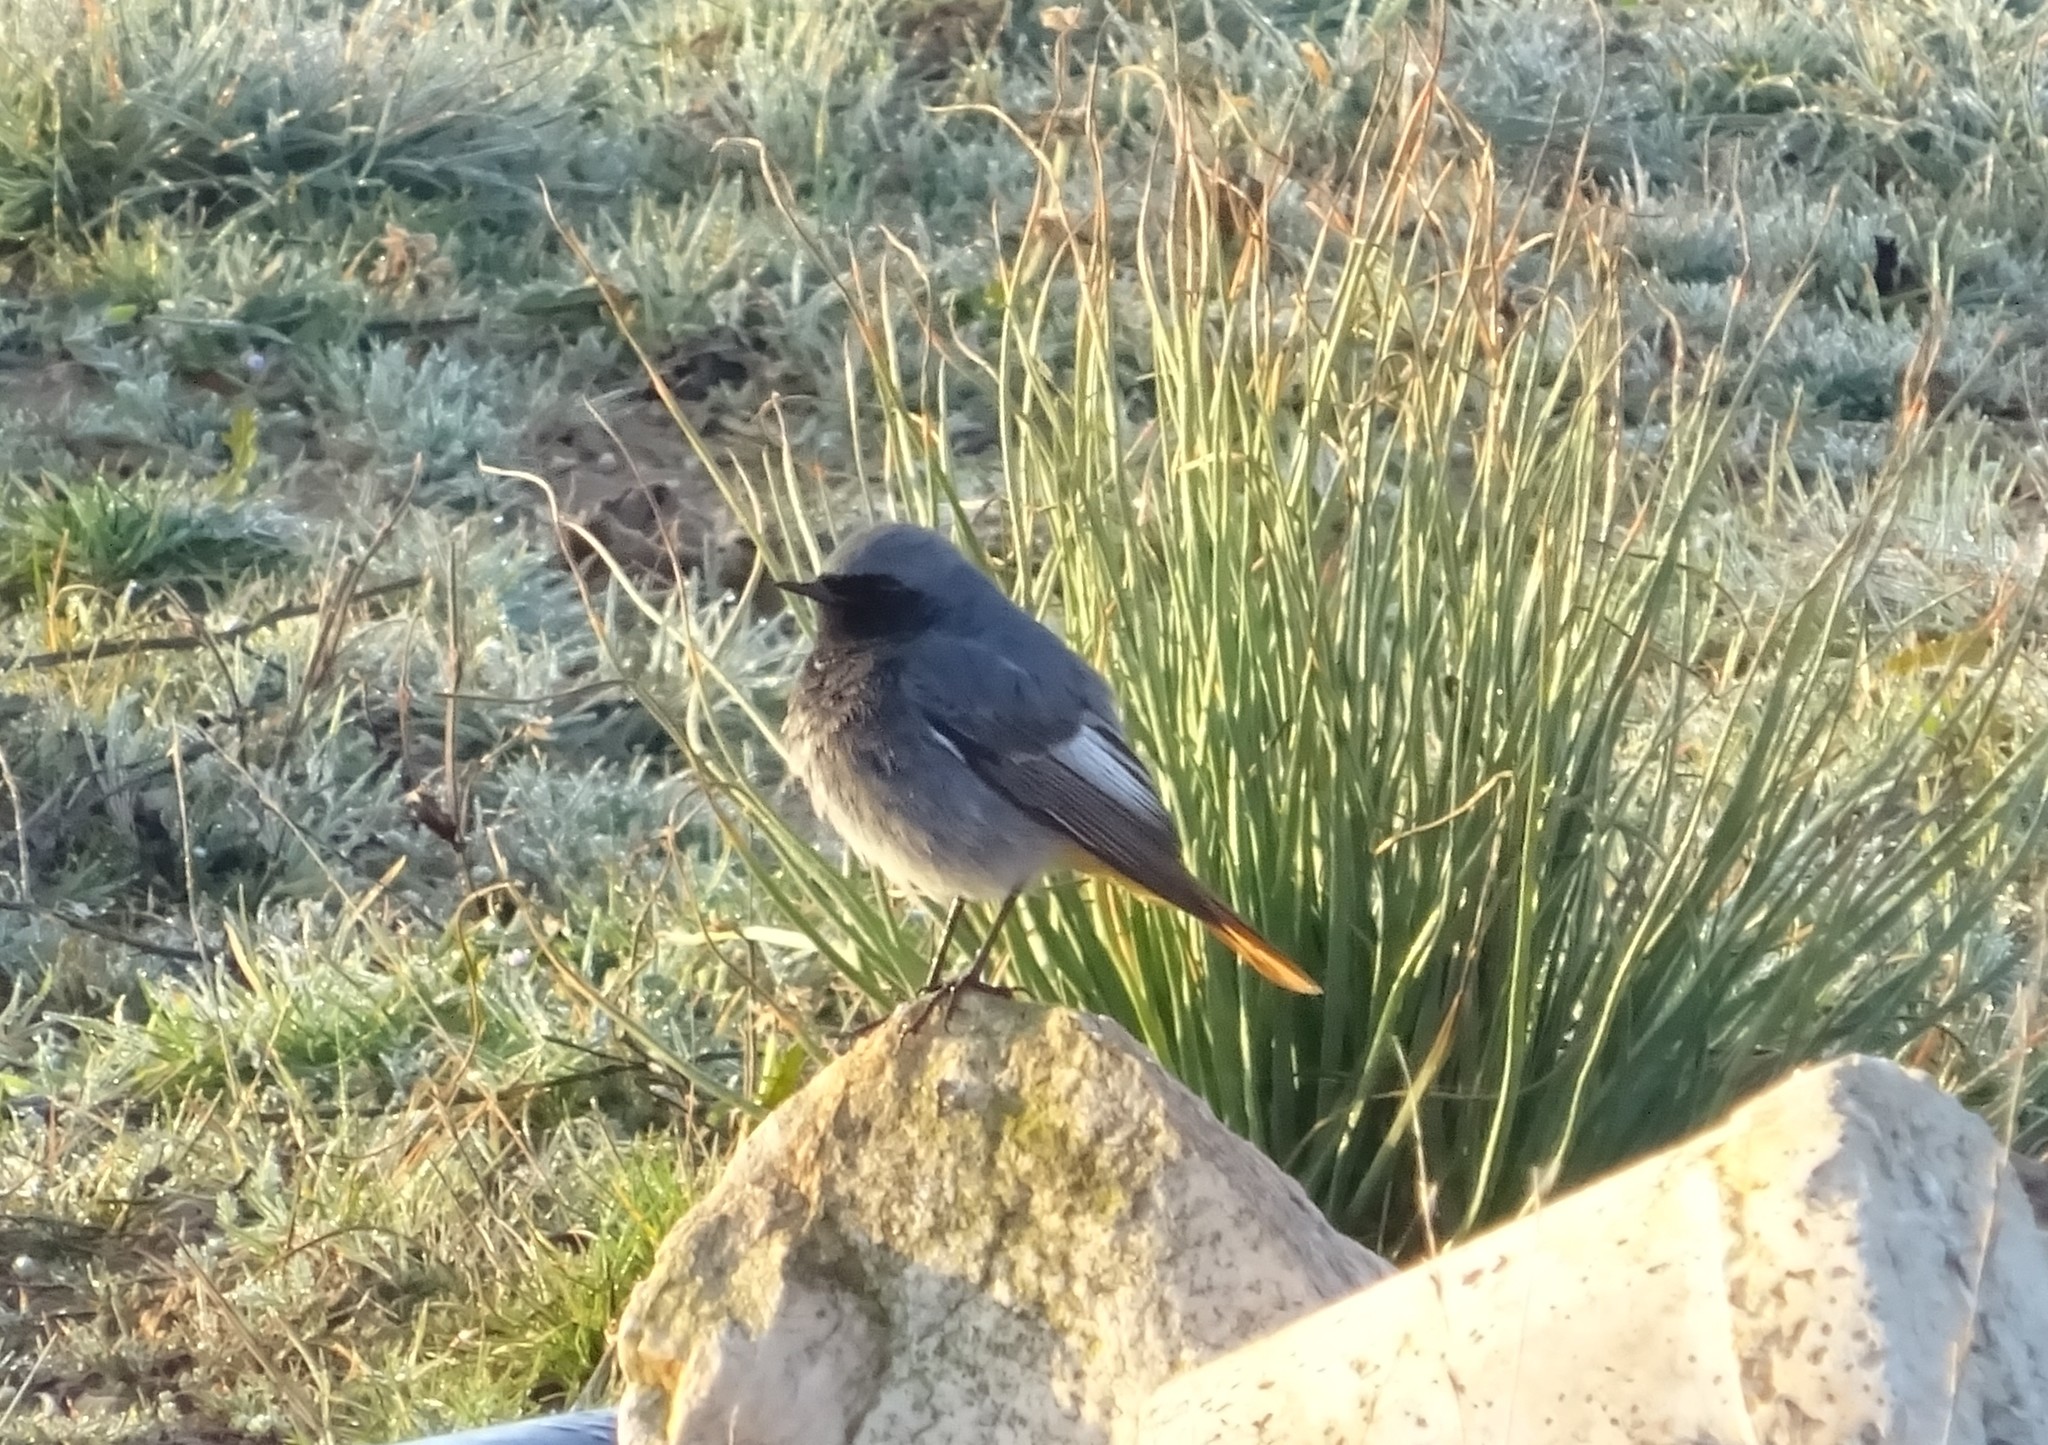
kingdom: Animalia
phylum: Chordata
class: Aves
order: Passeriformes
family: Muscicapidae
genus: Phoenicurus
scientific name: Phoenicurus ochruros
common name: Black redstart
